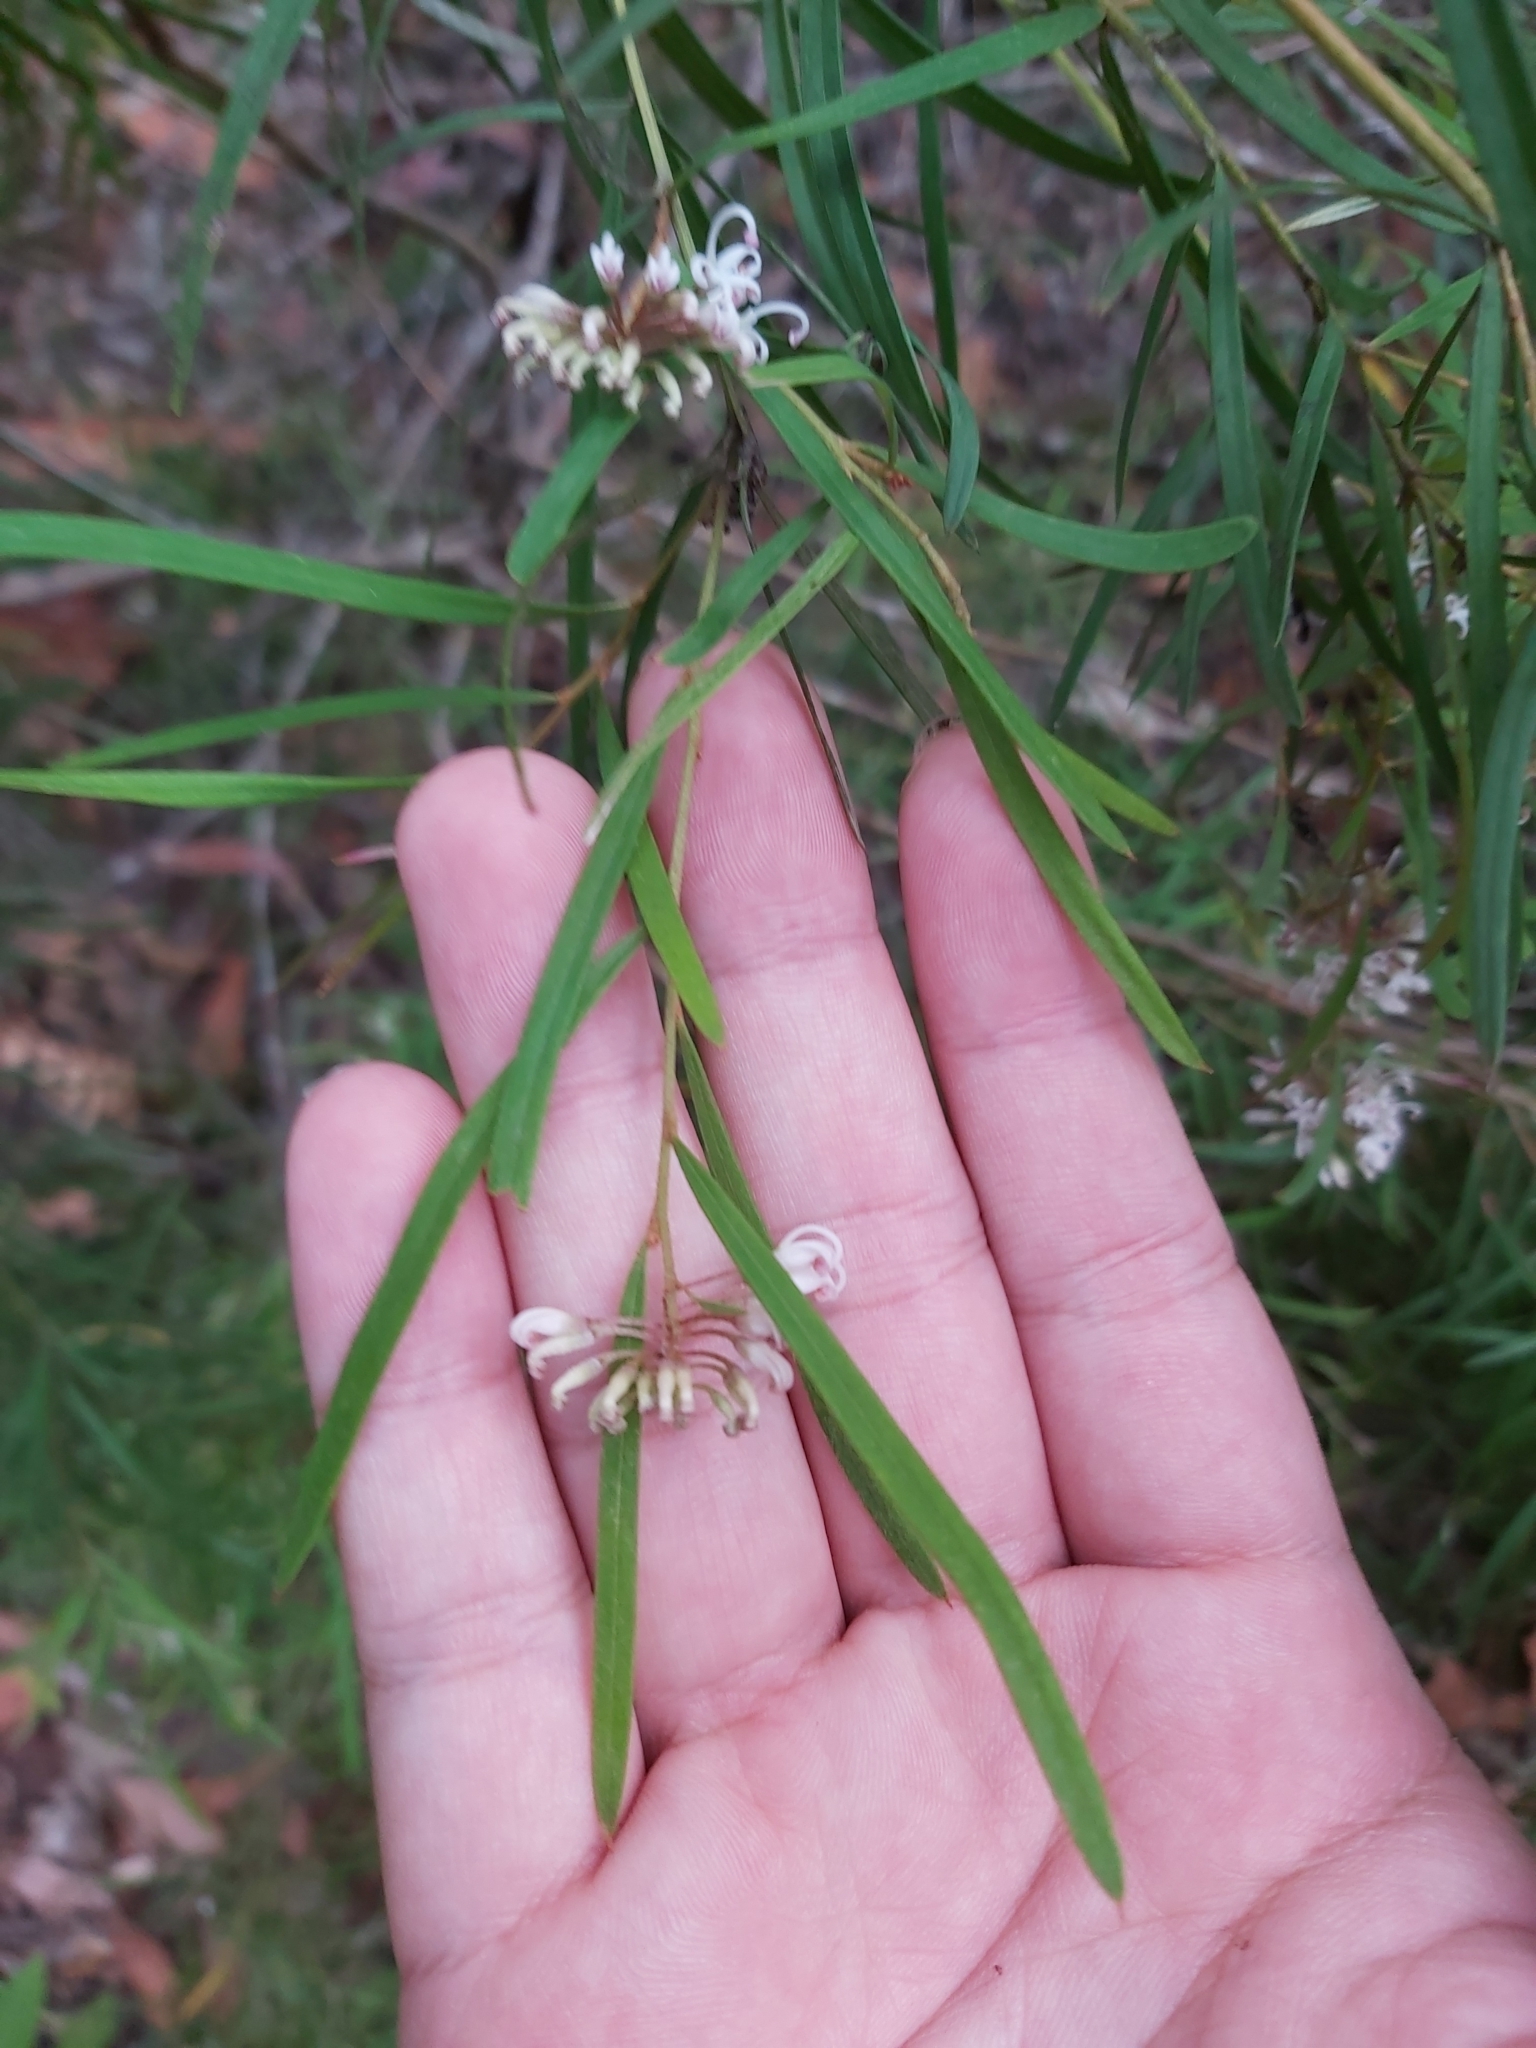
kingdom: Plantae
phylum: Tracheophyta
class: Magnoliopsida
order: Proteales
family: Proteaceae
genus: Grevillea
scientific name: Grevillea linearifolia
